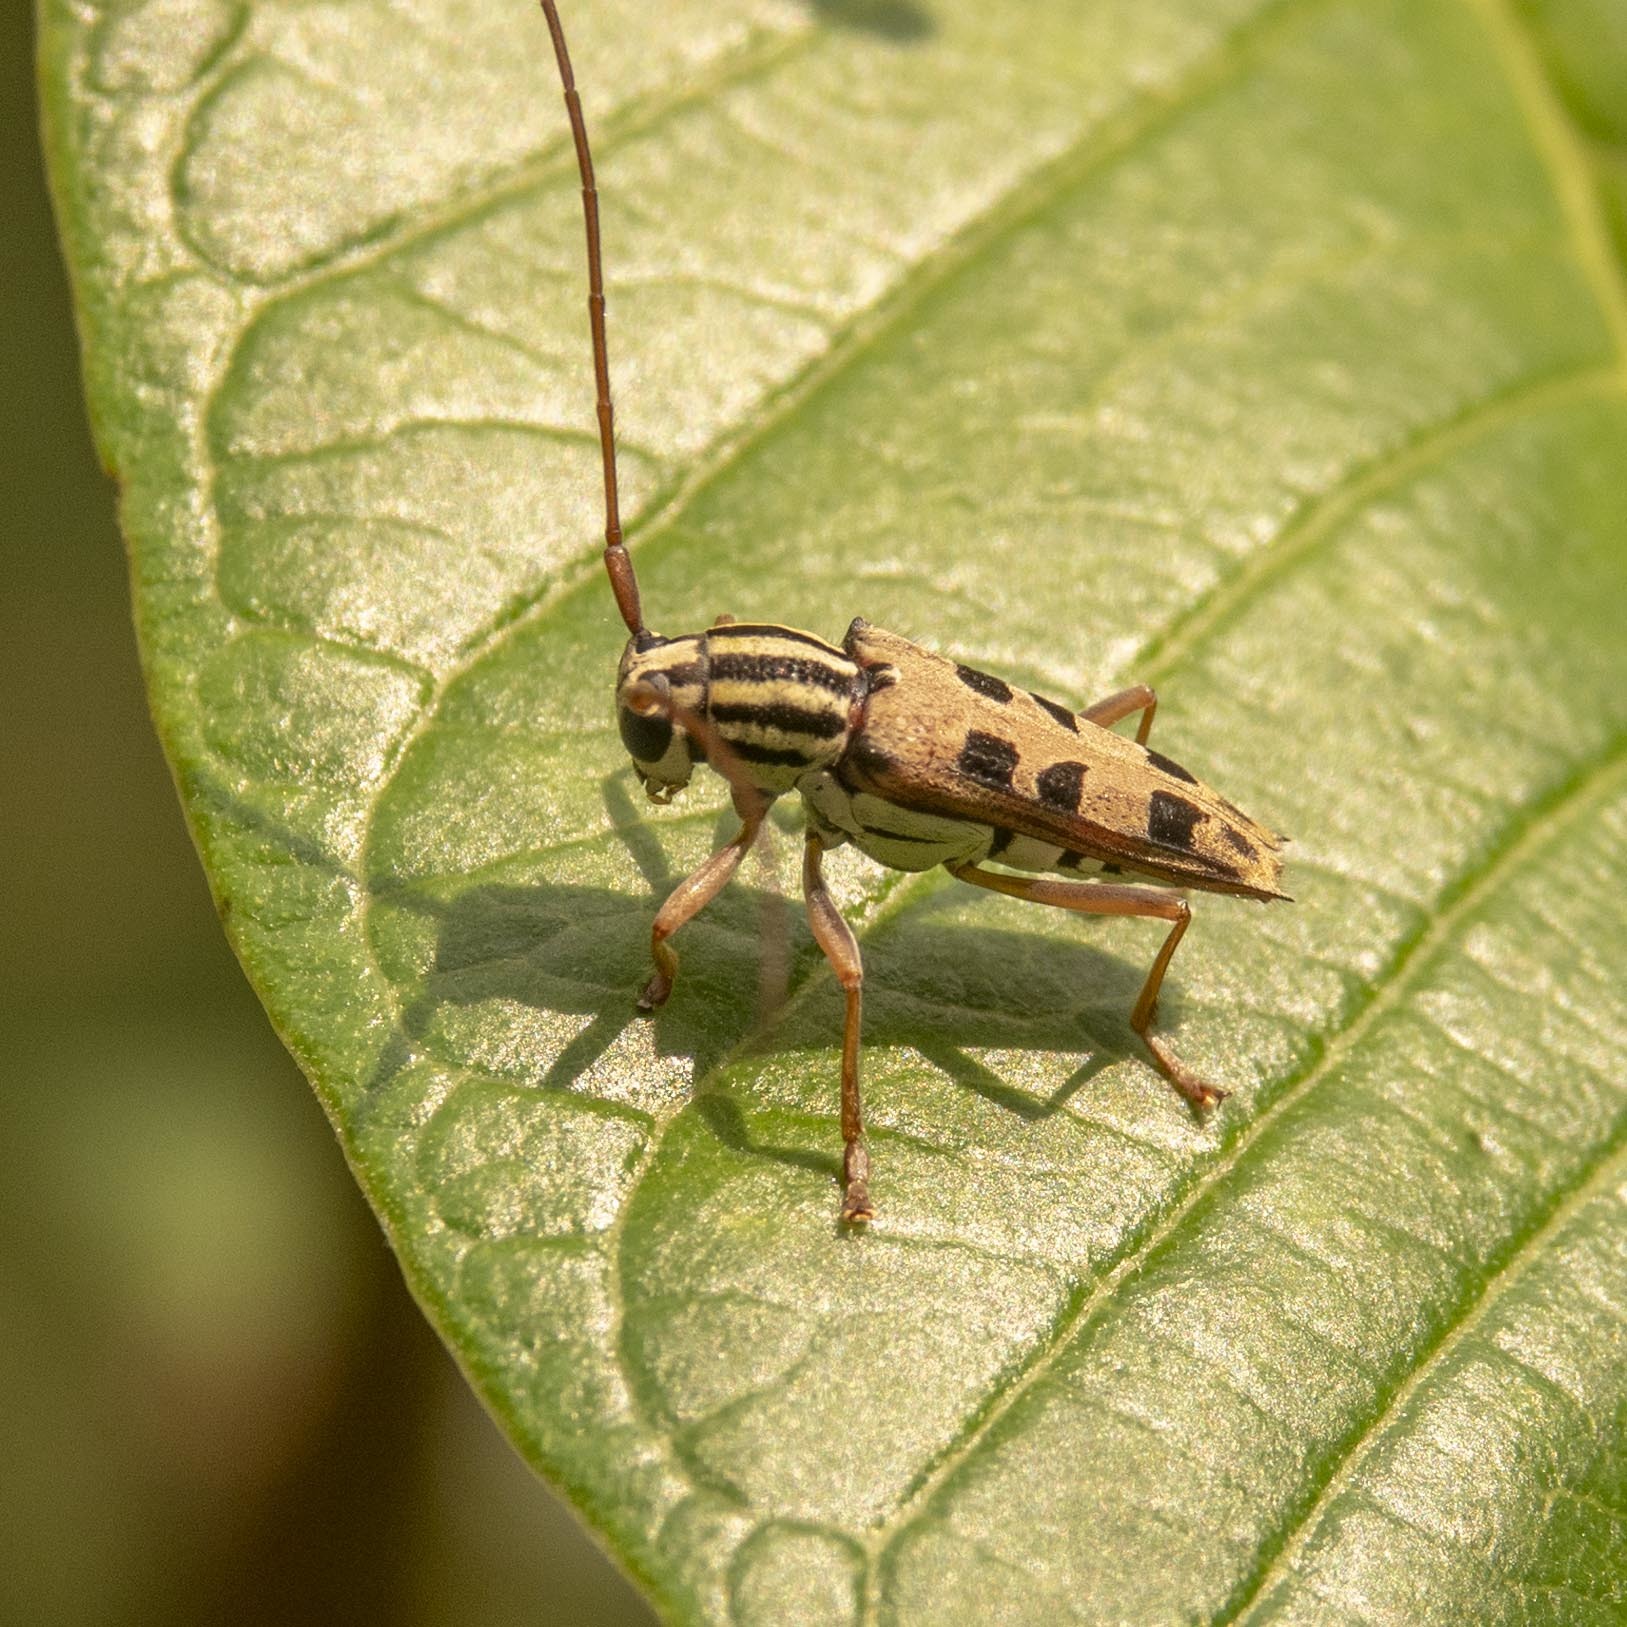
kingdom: Animalia
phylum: Arthropoda
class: Insecta
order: Coleoptera
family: Cerambycidae
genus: Glenea
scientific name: Glenea sexnotata
